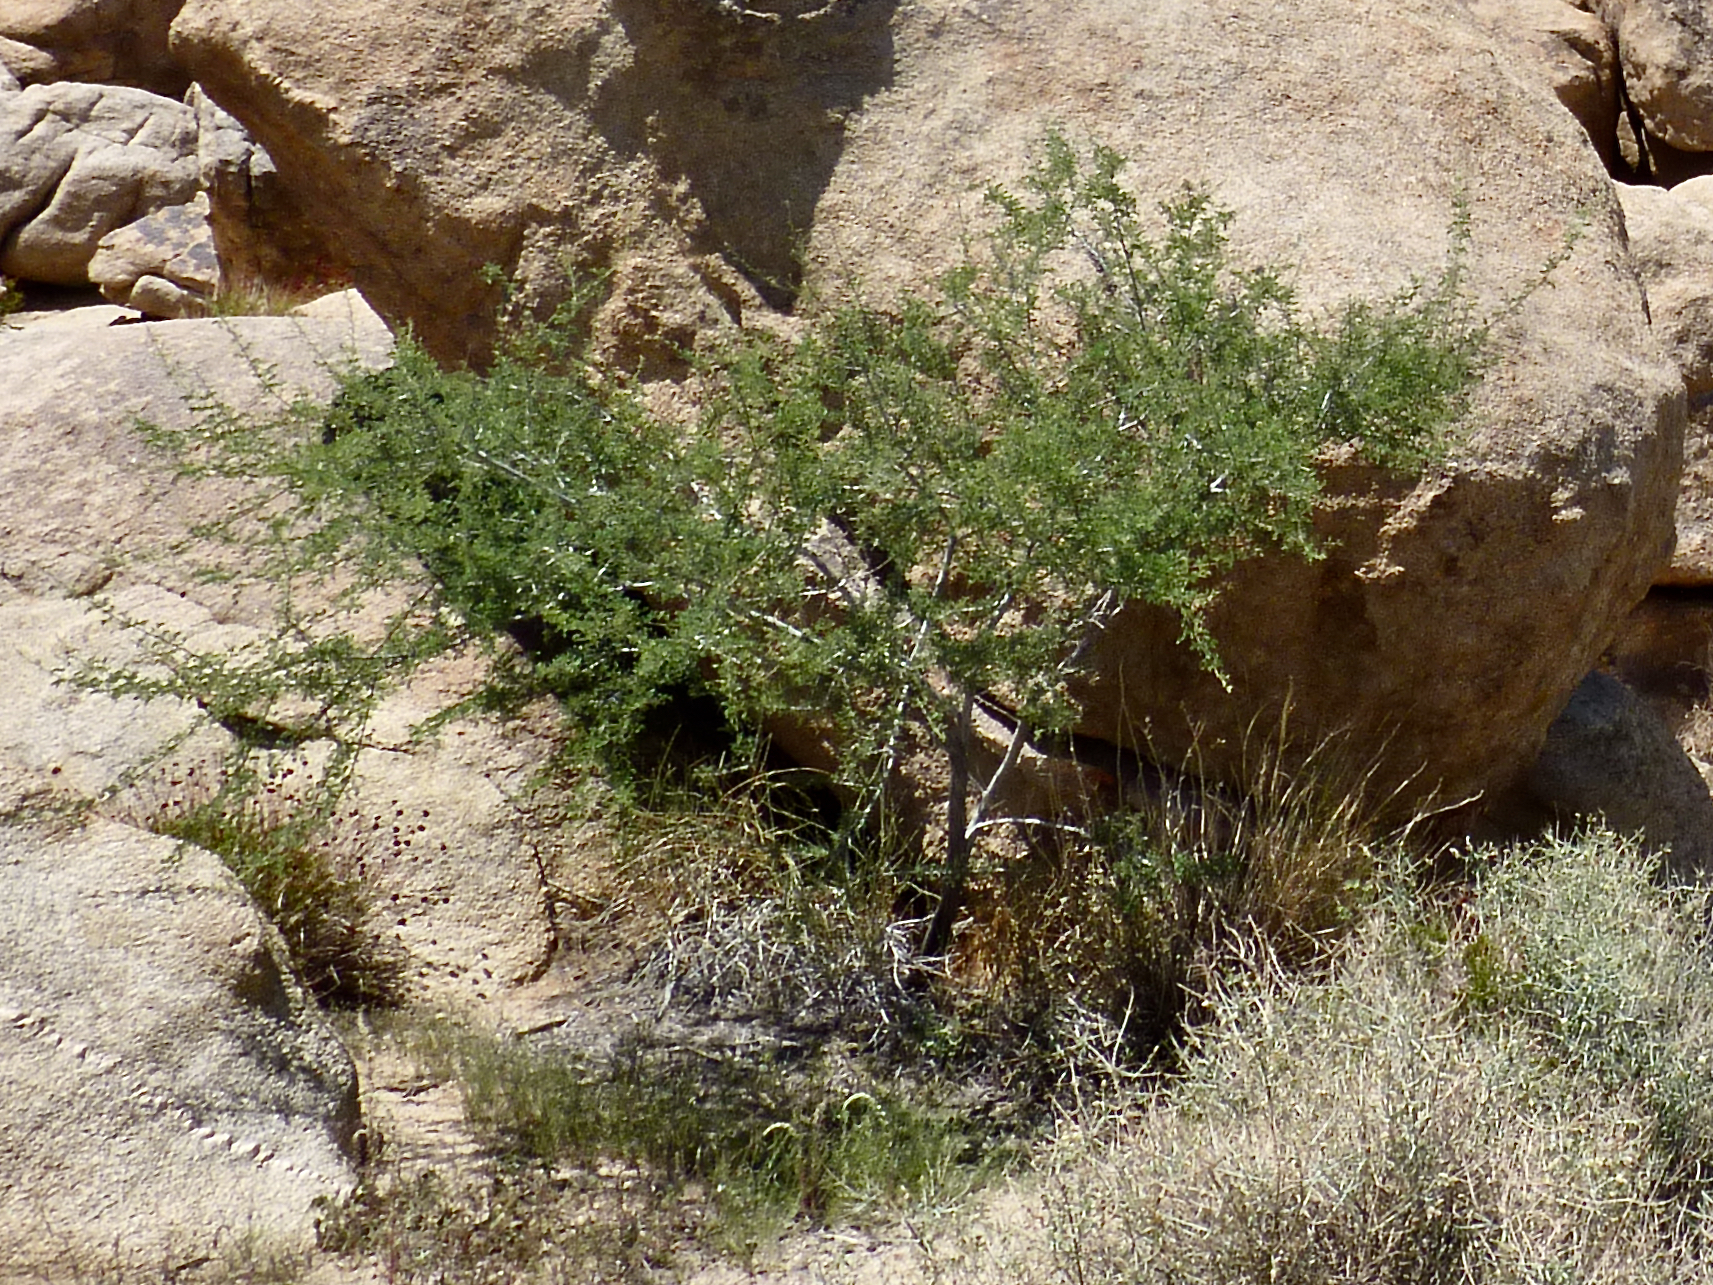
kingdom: Plantae
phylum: Tracheophyta
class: Magnoliopsida
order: Fabales
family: Fabaceae
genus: Senegalia
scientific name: Senegalia greggii
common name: Texas-mimosa
